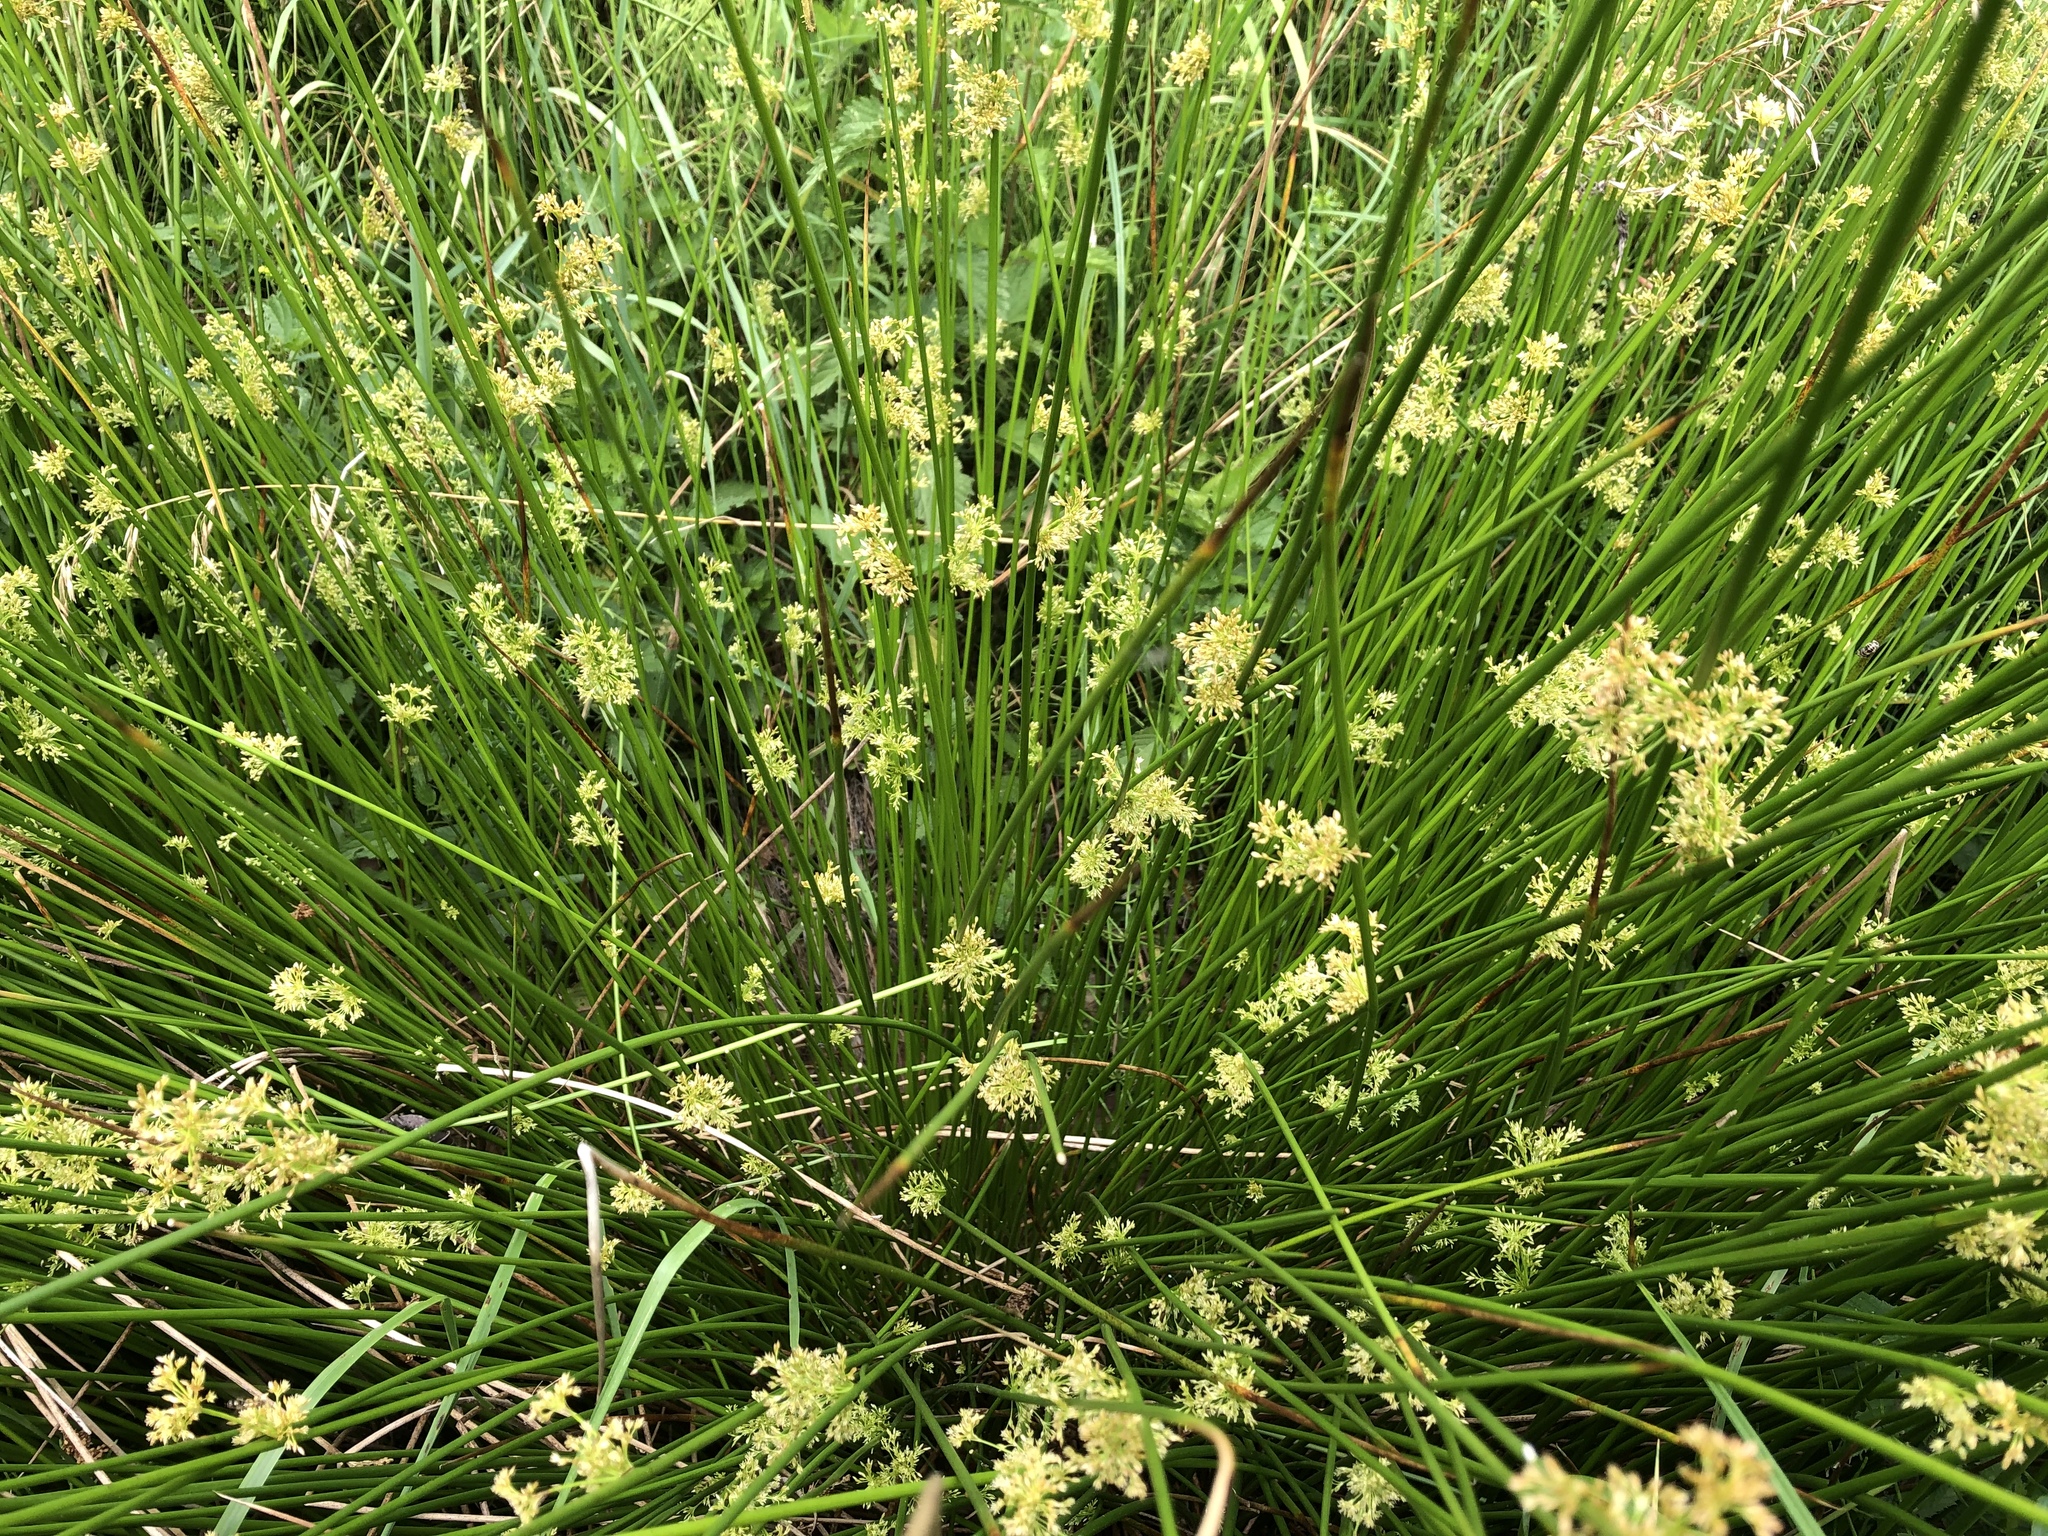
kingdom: Plantae
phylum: Tracheophyta
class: Liliopsida
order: Poales
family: Juncaceae
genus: Juncus
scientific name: Juncus effusus
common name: Soft rush
